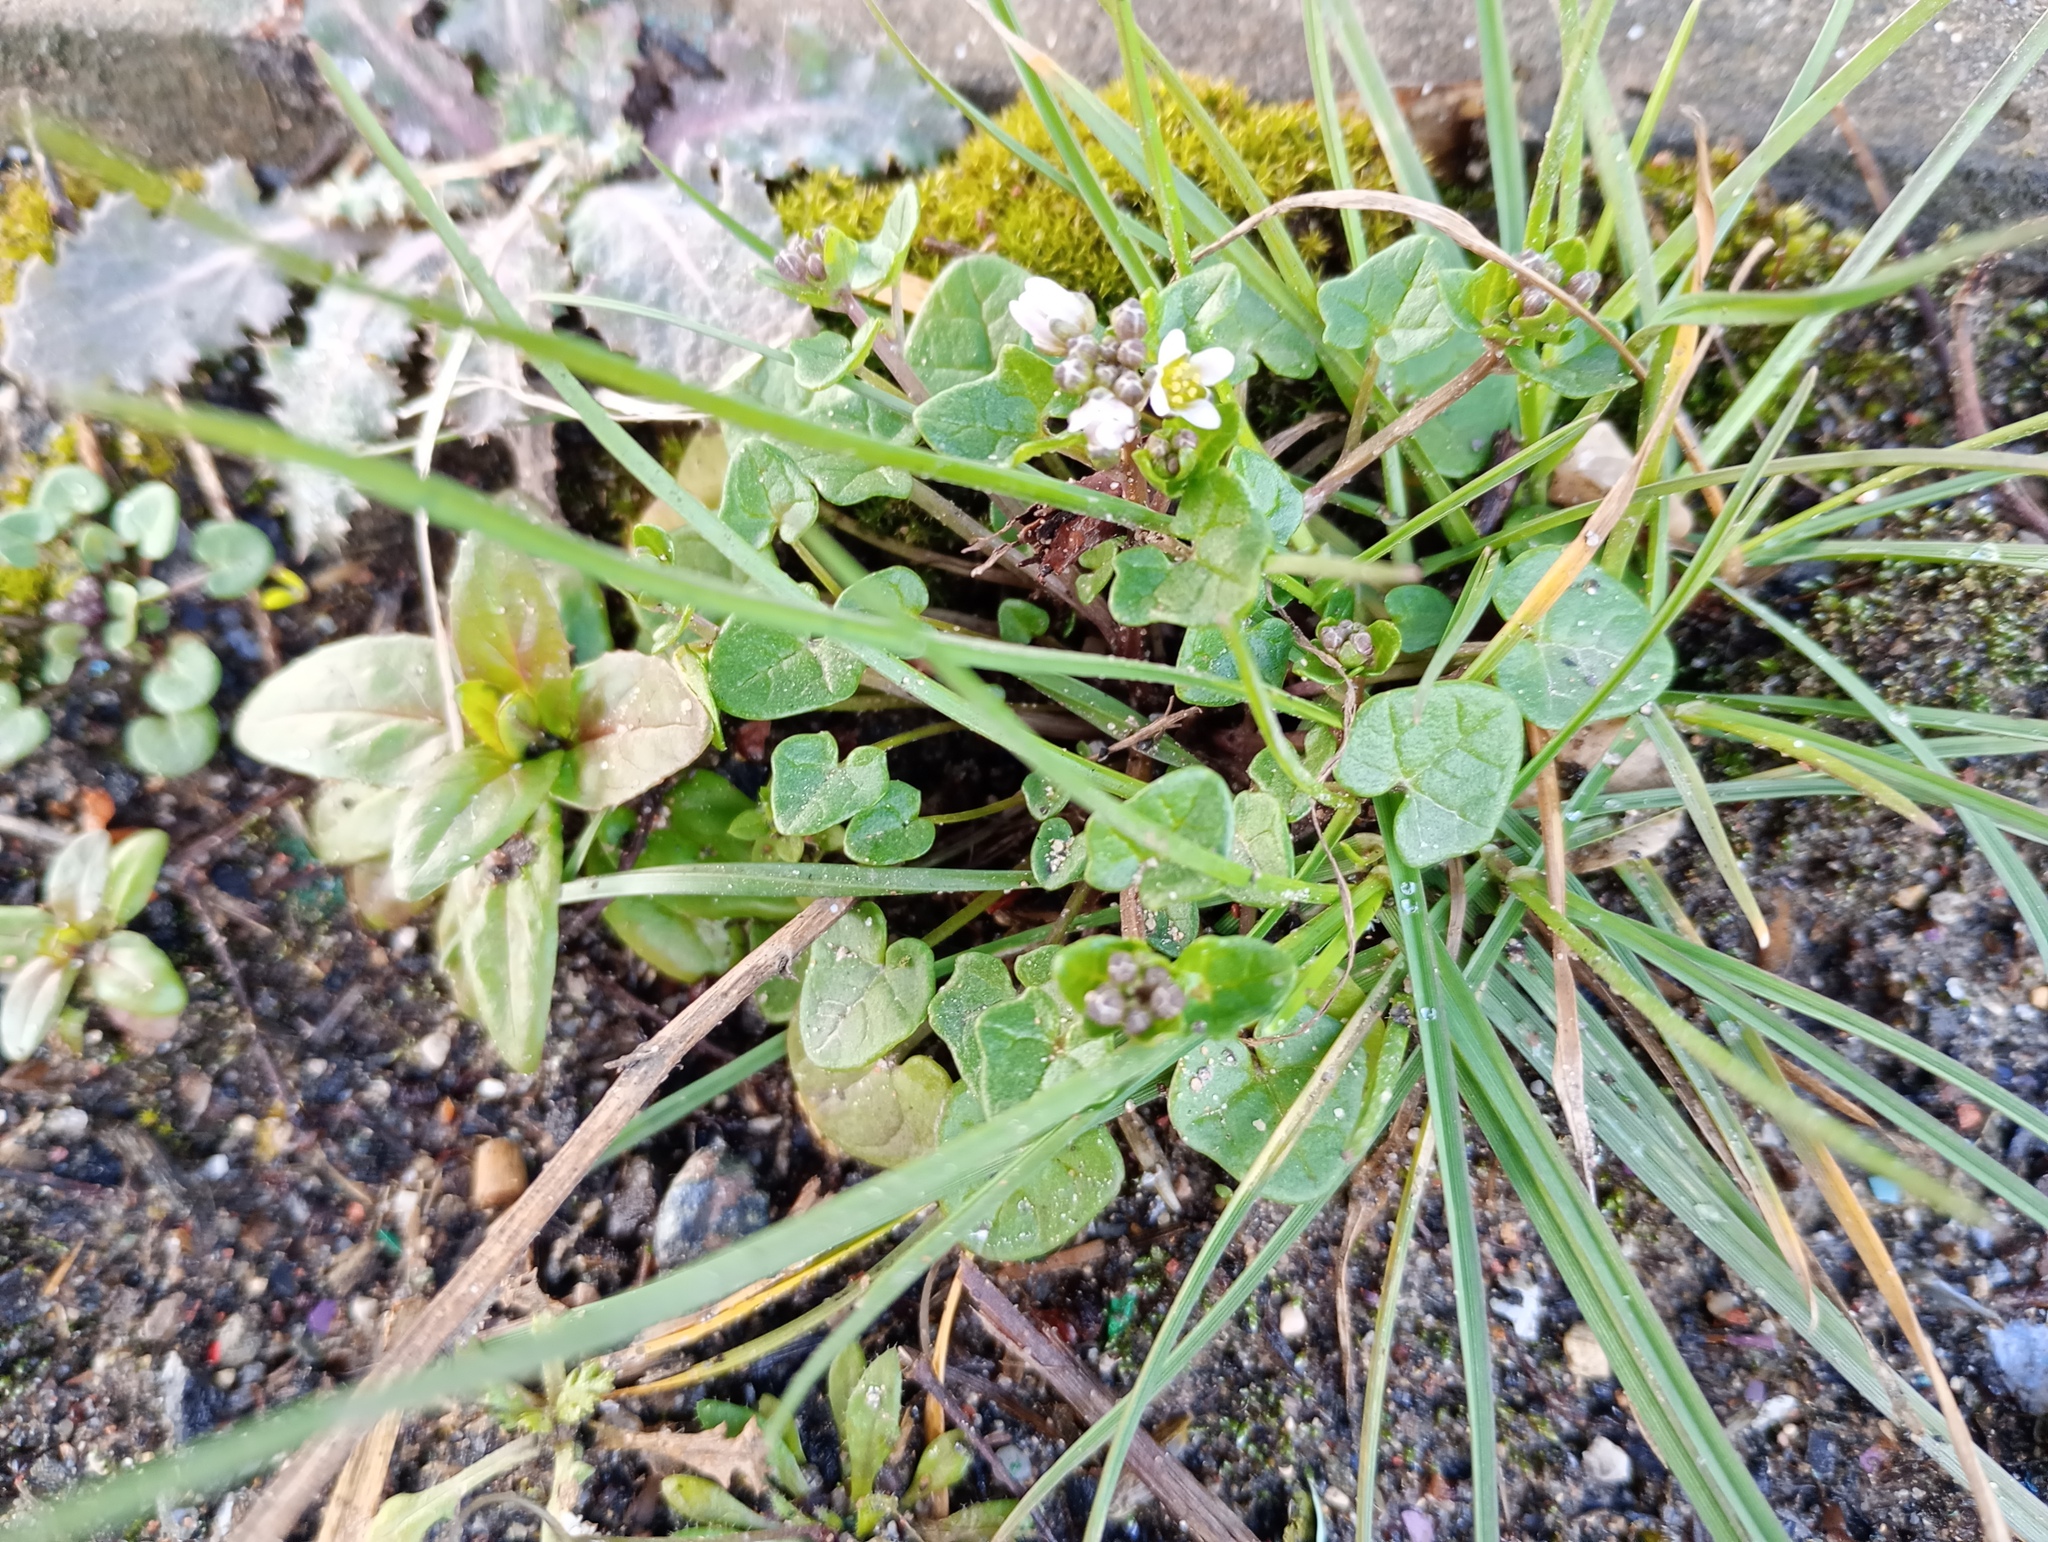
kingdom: Plantae
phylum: Tracheophyta
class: Magnoliopsida
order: Brassicales
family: Brassicaceae
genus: Cochlearia
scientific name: Cochlearia danica
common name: Early scurvygrass
